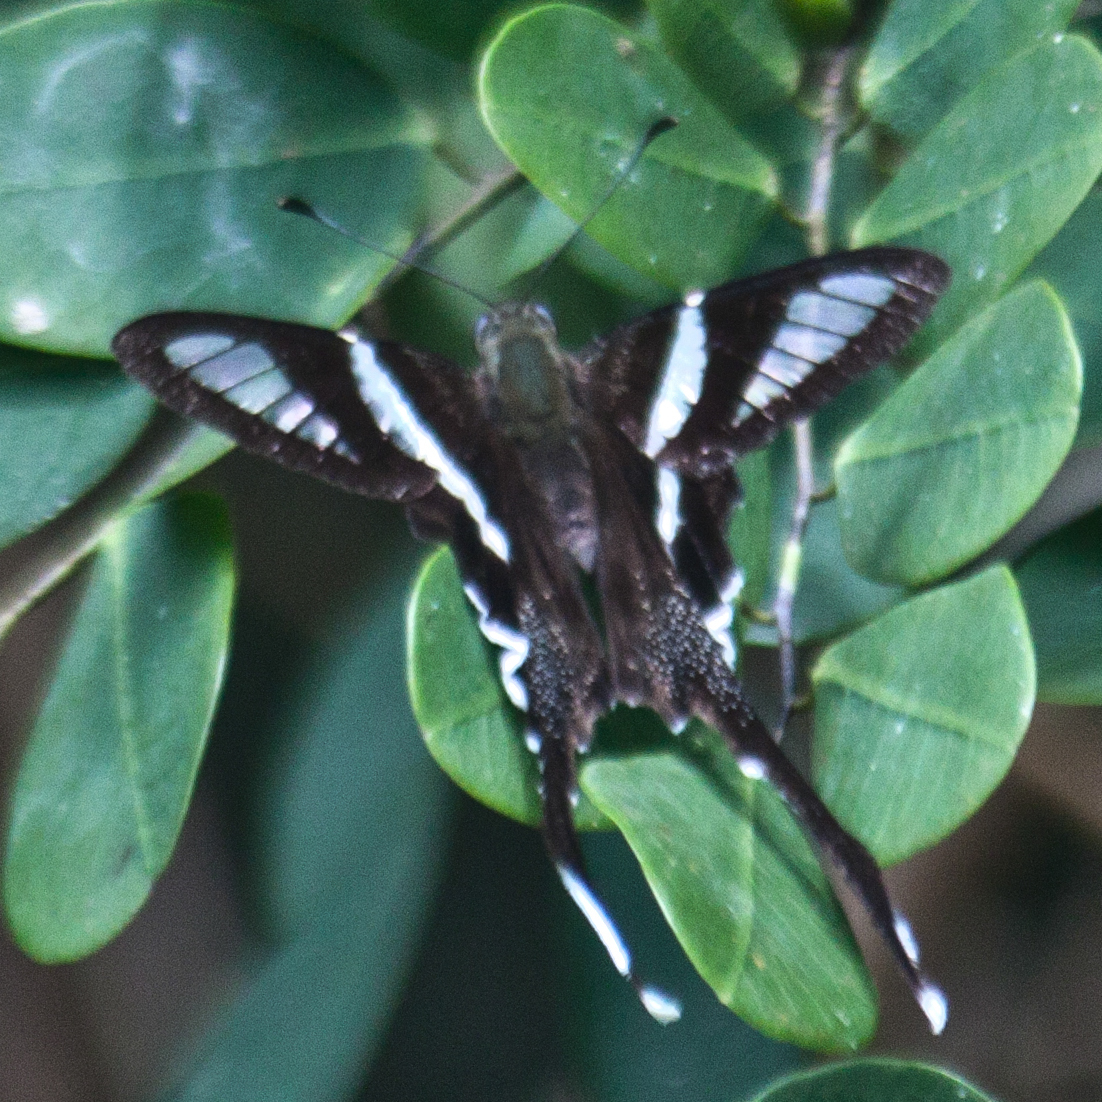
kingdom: Animalia
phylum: Arthropoda
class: Insecta
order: Lepidoptera
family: Papilionidae
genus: Lamproptera
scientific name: Lamproptera curius
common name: White dragontail
